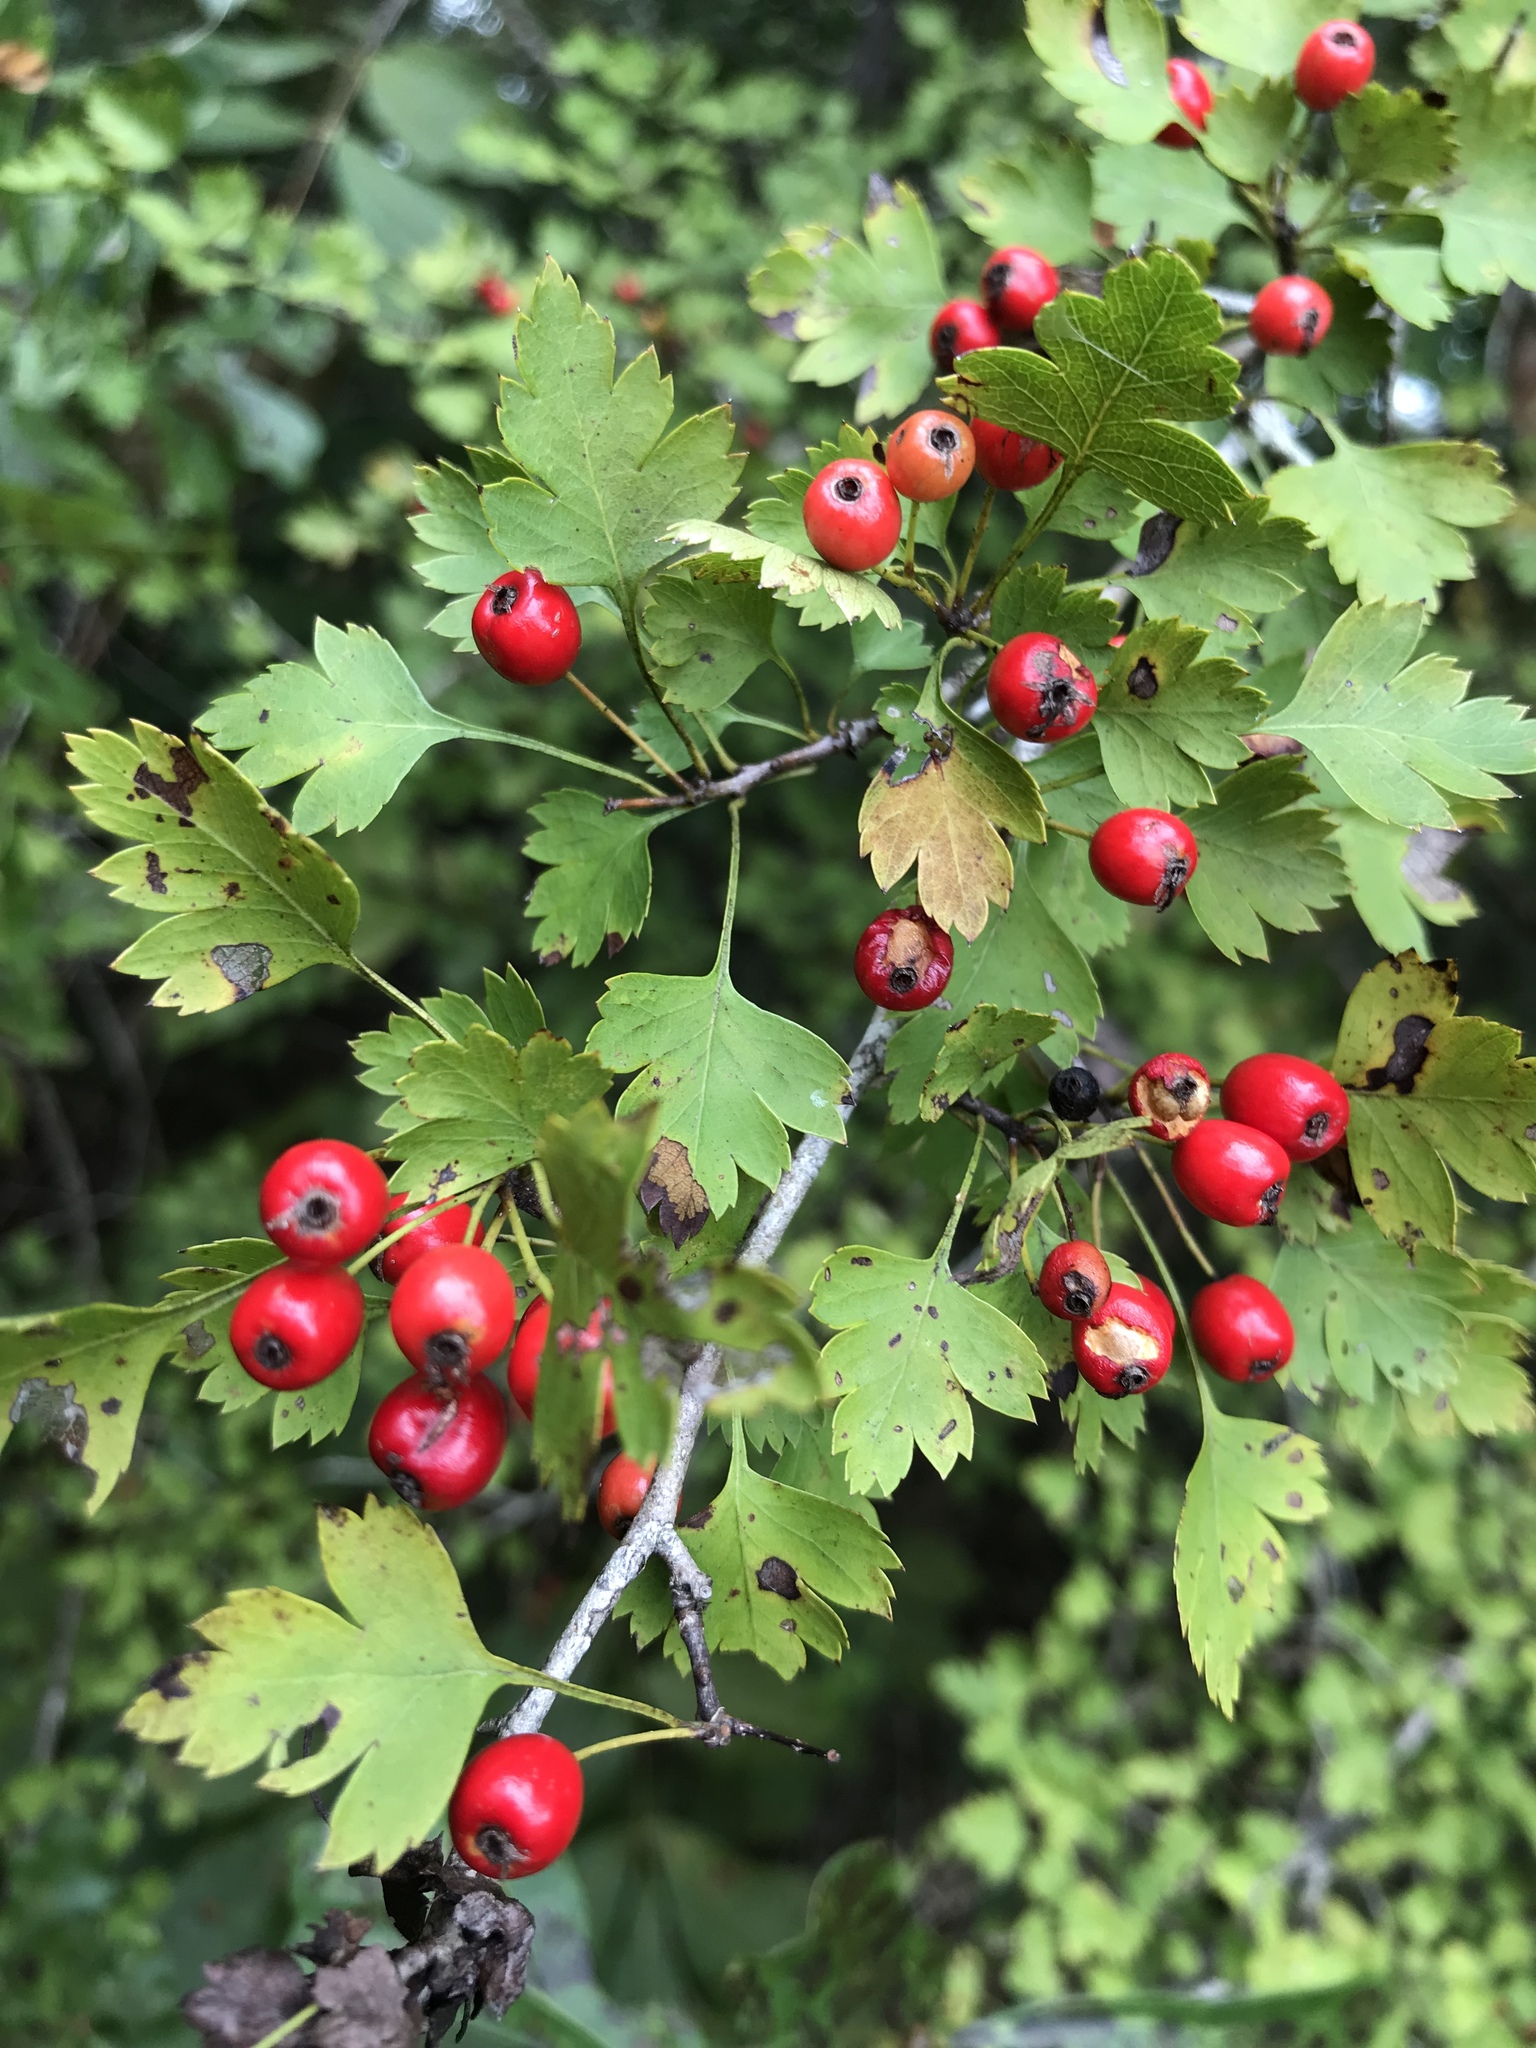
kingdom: Plantae
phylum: Tracheophyta
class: Magnoliopsida
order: Rosales
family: Rosaceae
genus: Crataegus
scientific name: Crataegus marshallii
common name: Parsley-hawthorn
